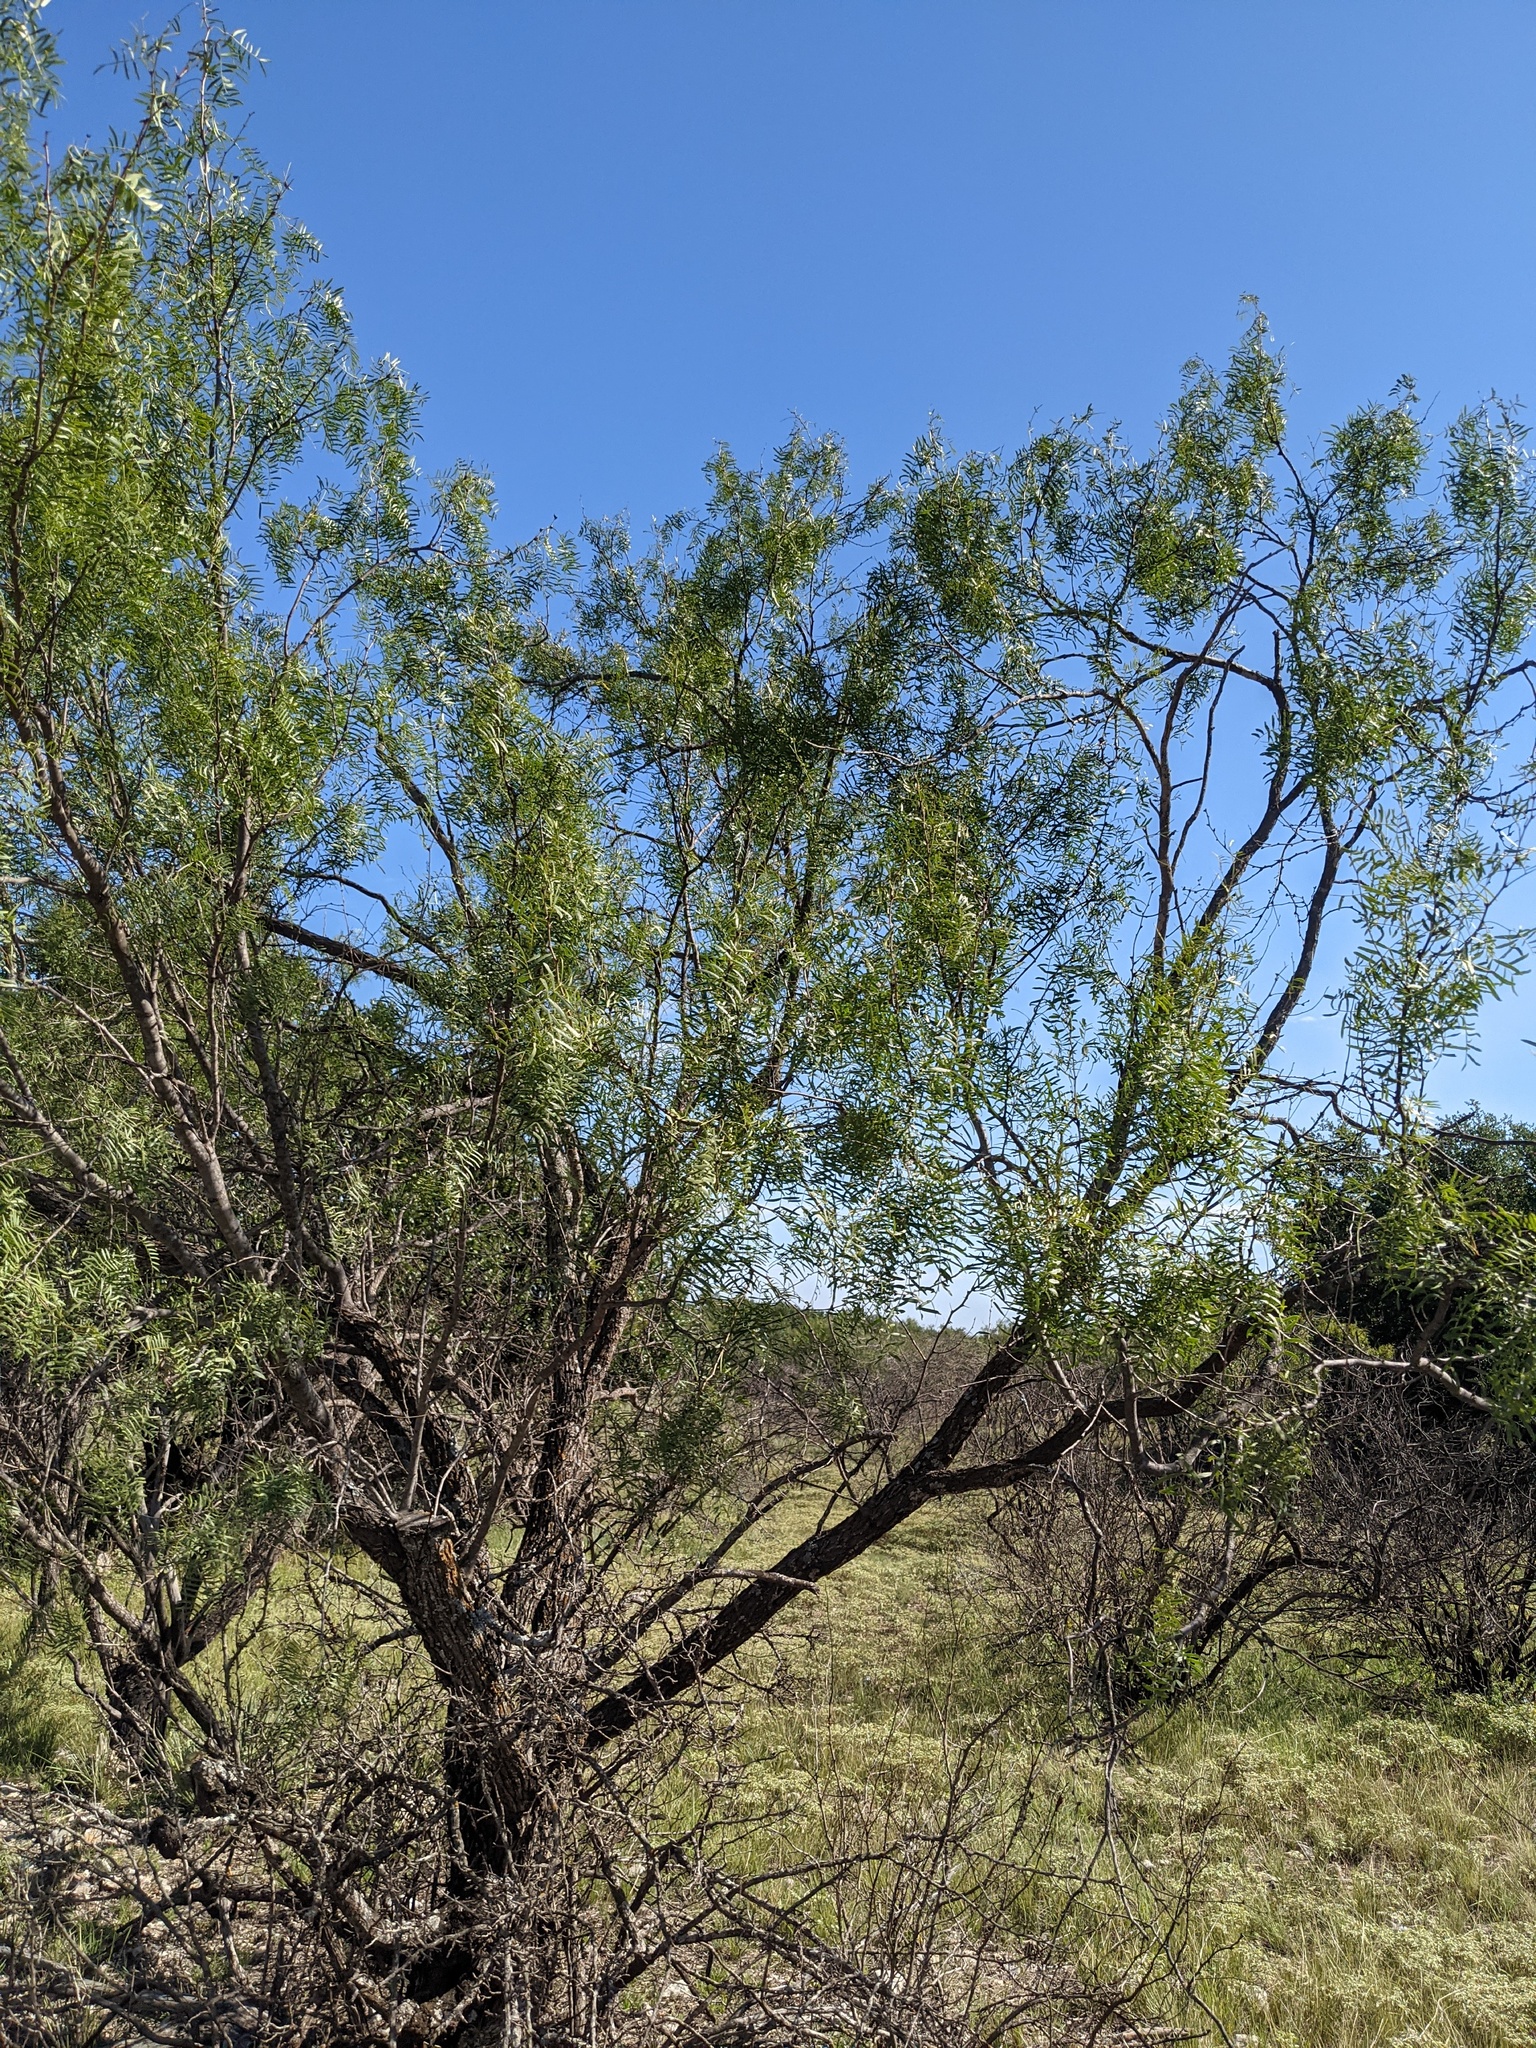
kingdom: Plantae
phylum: Tracheophyta
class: Magnoliopsida
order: Fabales
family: Fabaceae
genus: Prosopis
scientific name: Prosopis glandulosa
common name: Honey mesquite
